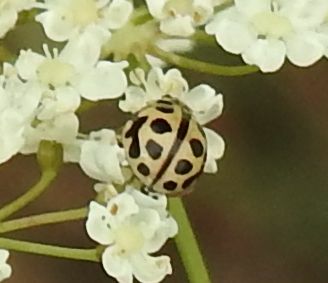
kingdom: Animalia
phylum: Arthropoda
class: Insecta
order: Coleoptera
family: Coccinellidae
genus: Tytthaspis
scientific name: Tytthaspis sedecimpunctata
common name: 16-spot ladybird
